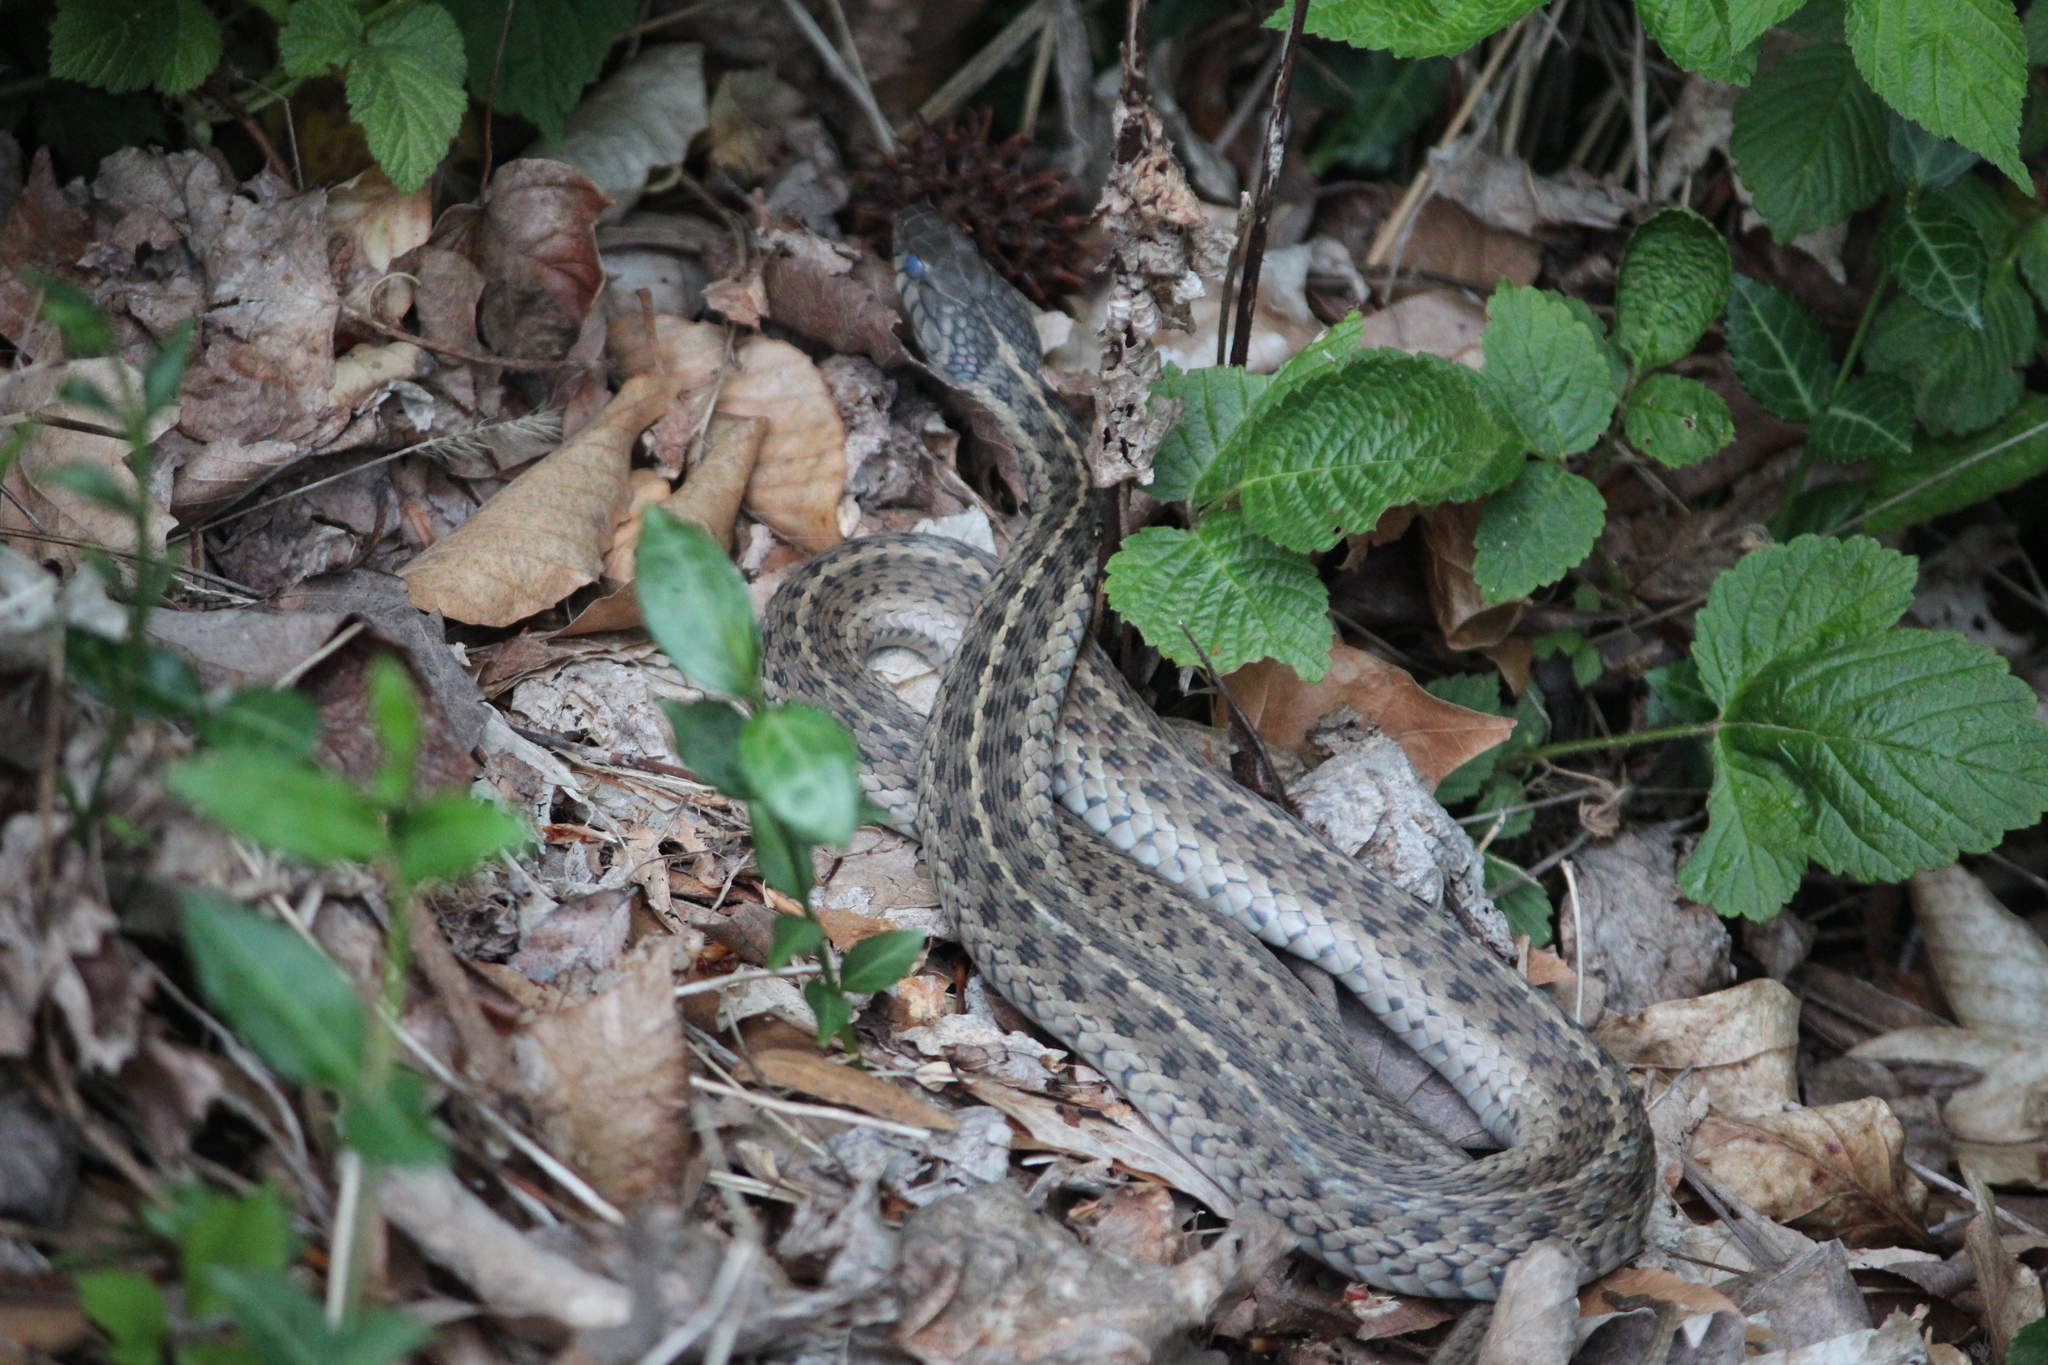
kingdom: Animalia
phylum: Chordata
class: Squamata
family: Colubridae
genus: Thamnophis
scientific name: Thamnophis sirtalis
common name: Common garter snake
